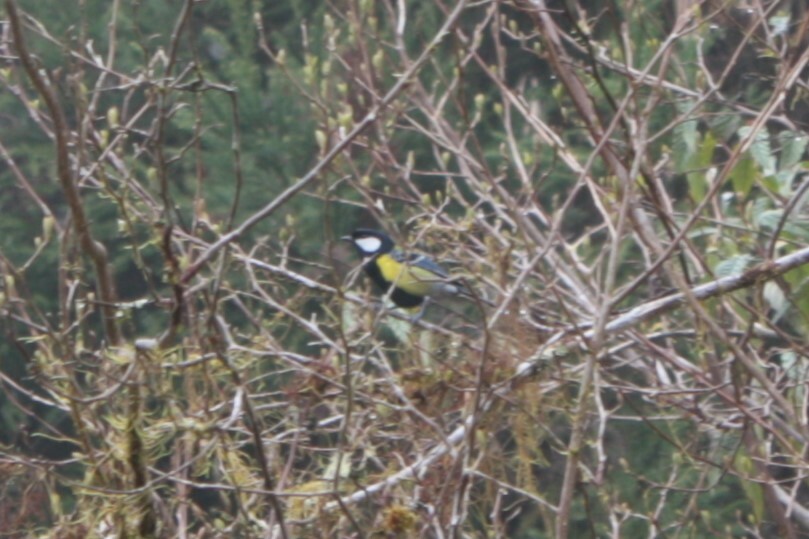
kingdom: Animalia
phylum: Chordata
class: Aves
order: Passeriformes
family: Paridae
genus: Parus
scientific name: Parus monticolus
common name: Green-backed tit
